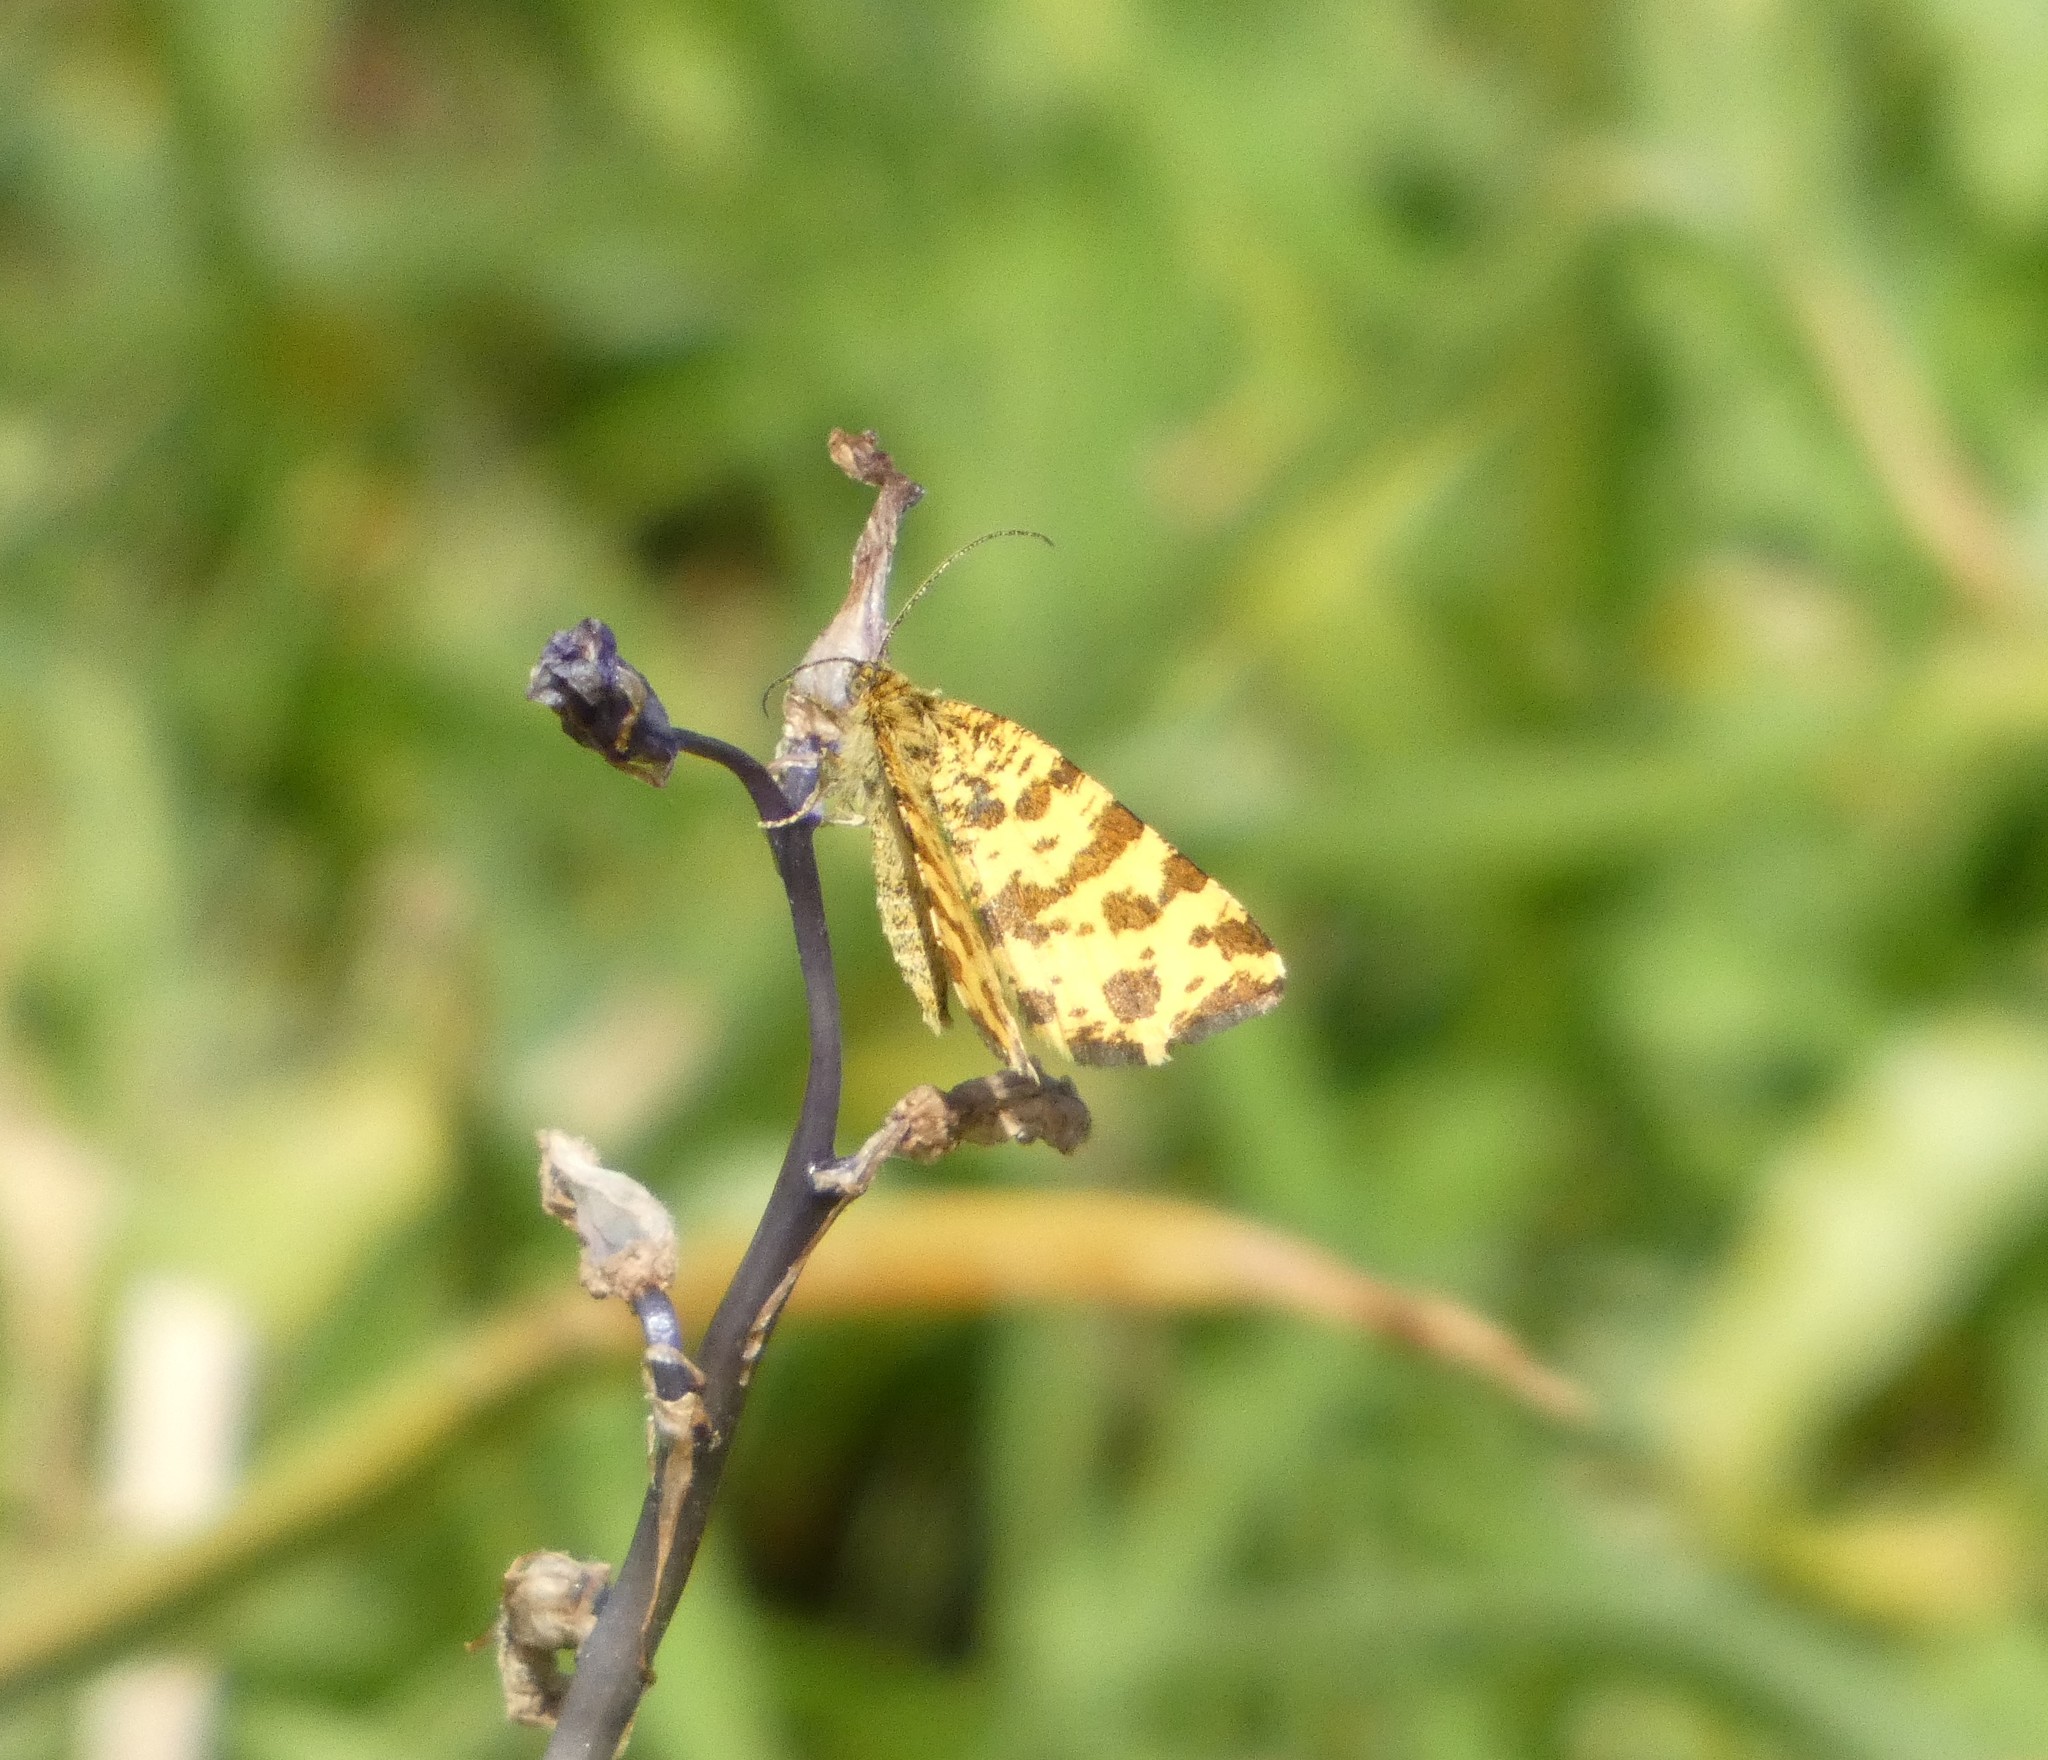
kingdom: Animalia
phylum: Arthropoda
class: Insecta
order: Lepidoptera
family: Geometridae
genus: Pseudopanthera
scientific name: Pseudopanthera macularia
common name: Speckled yellow
